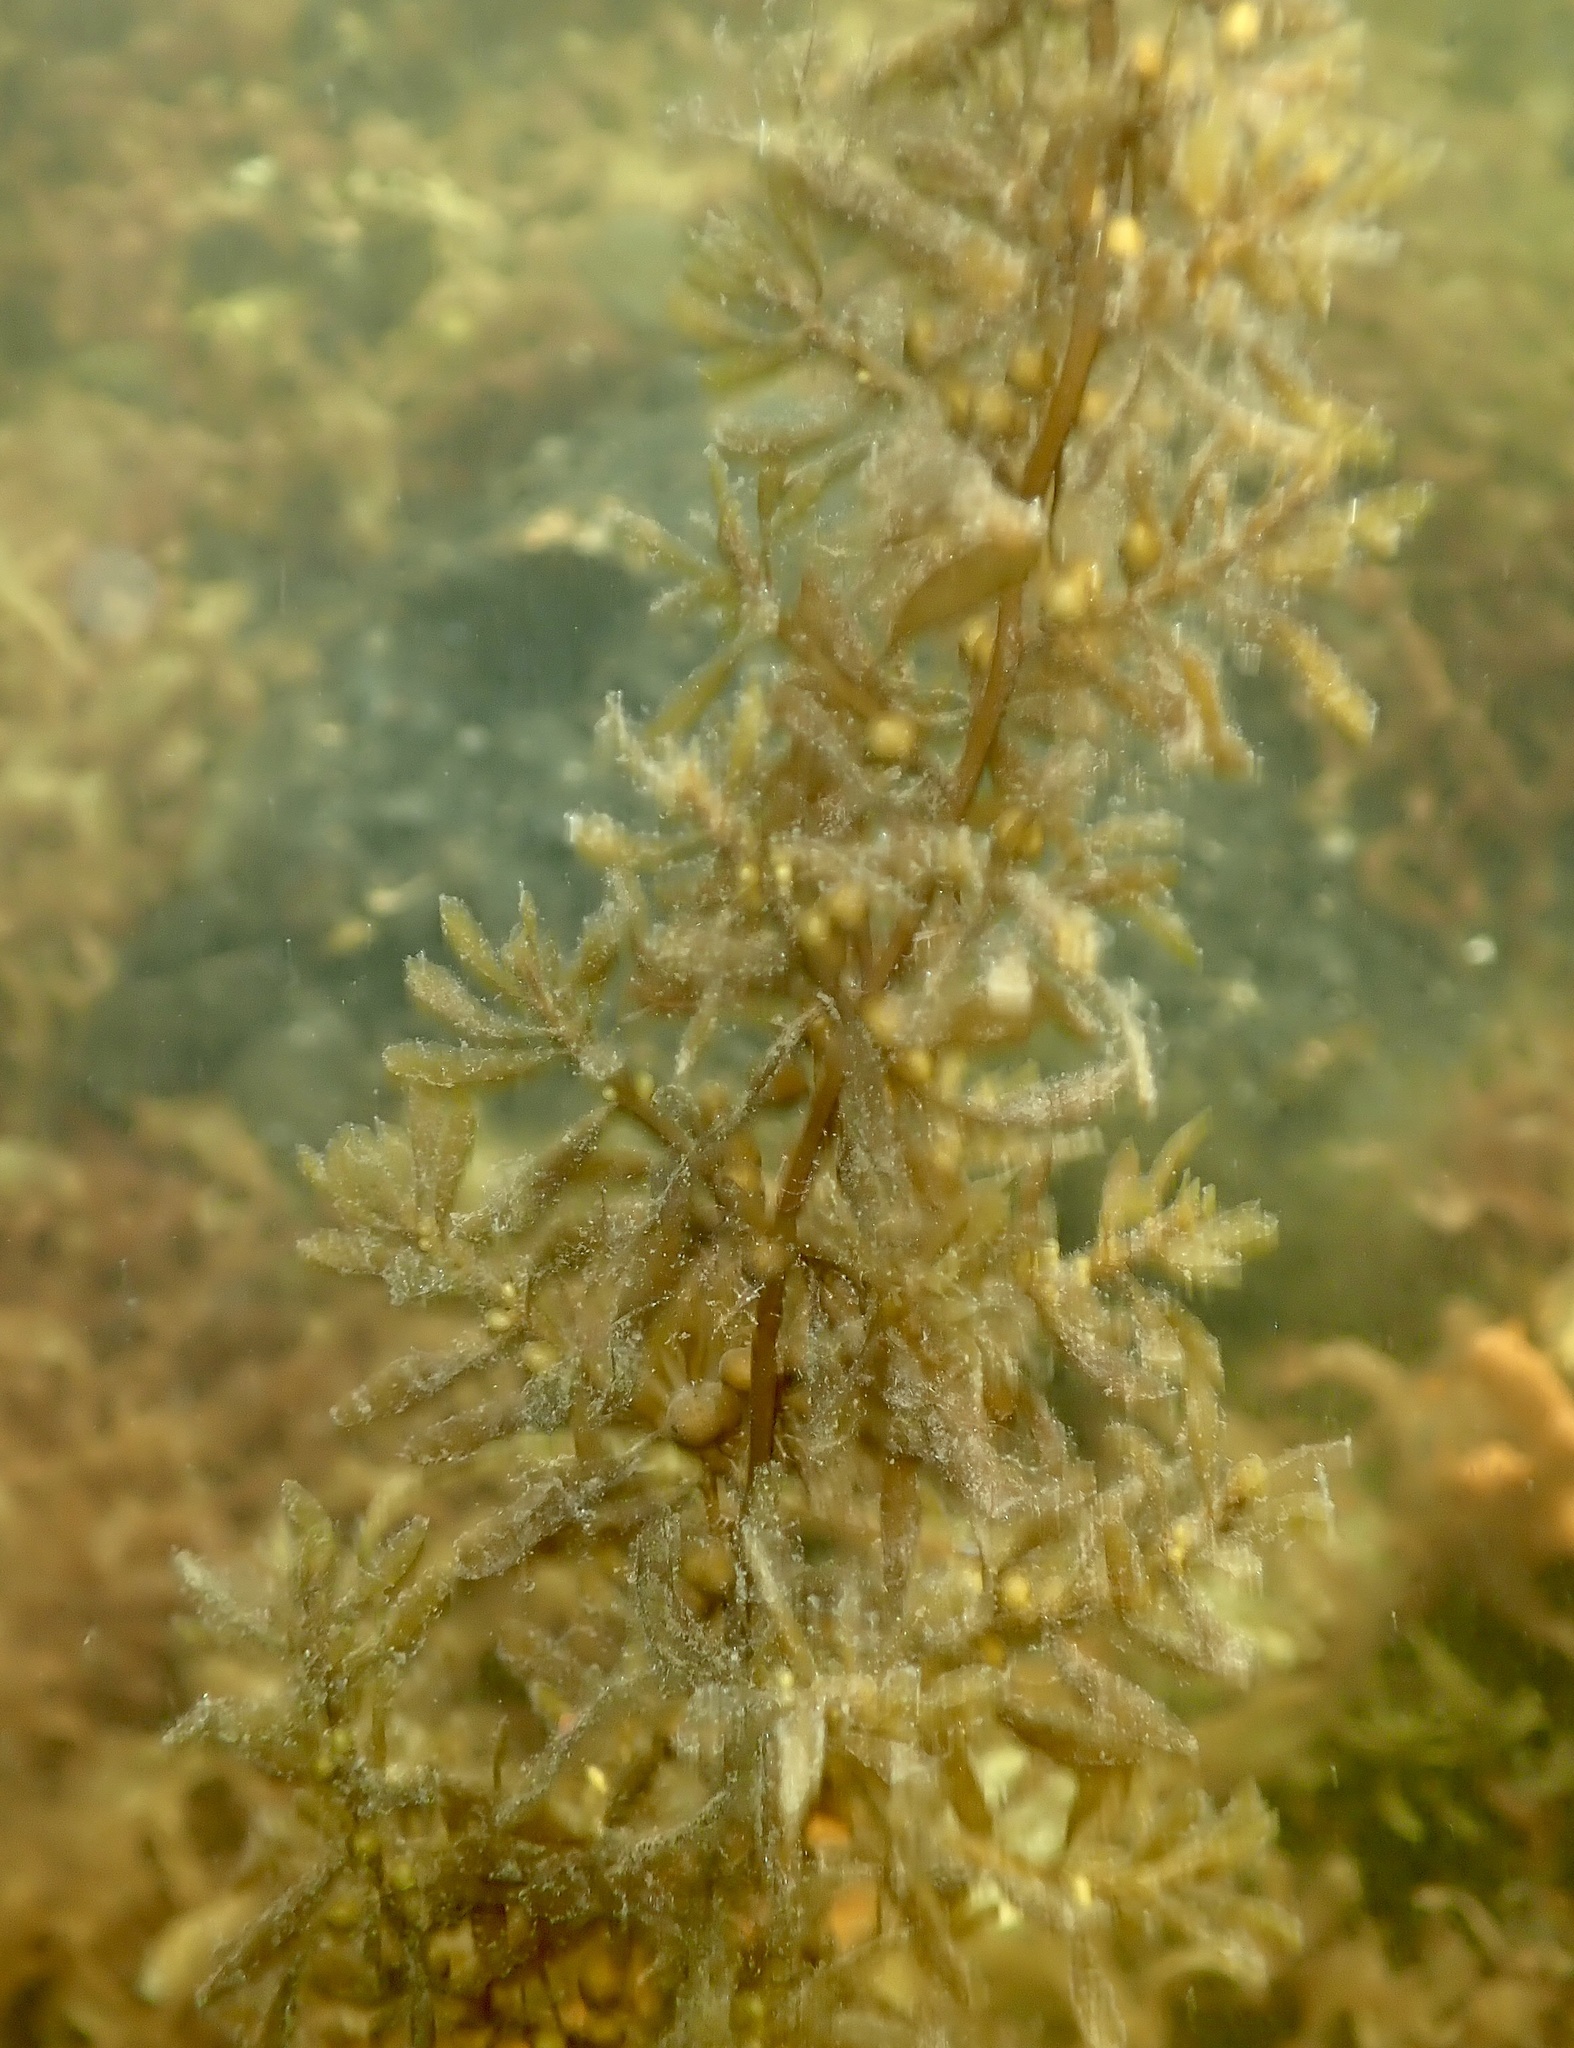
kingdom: Chromista
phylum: Ochrophyta
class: Phaeophyceae
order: Fucales
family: Sargassaceae
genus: Sargassum
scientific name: Sargassum muticum
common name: Japweed
